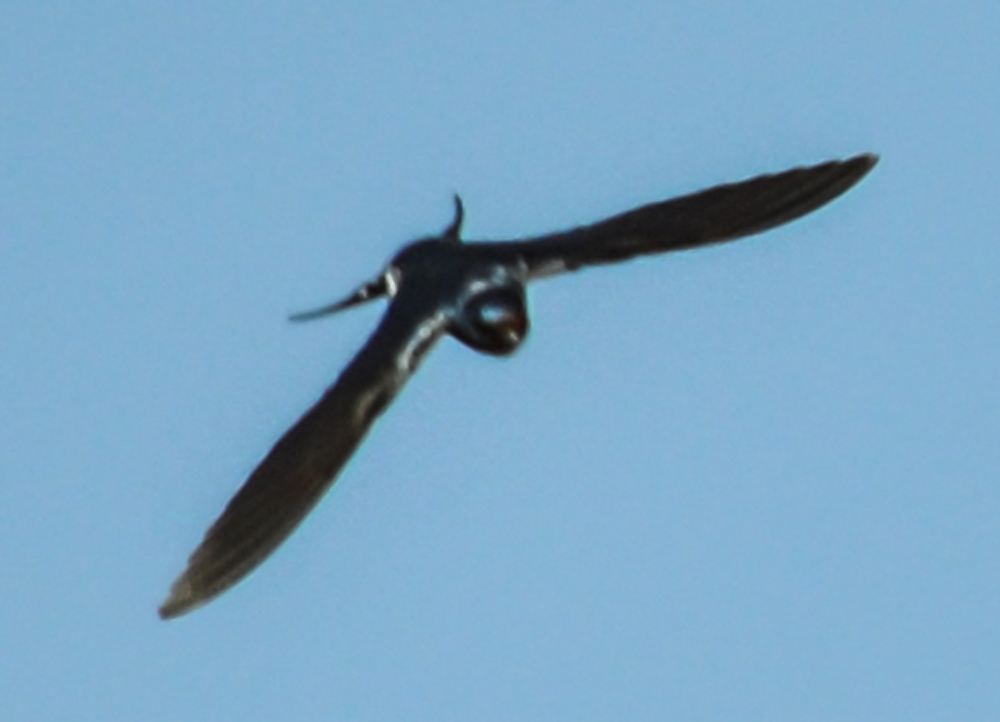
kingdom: Animalia
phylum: Chordata
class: Aves
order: Passeriformes
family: Hirundinidae
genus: Hirundo
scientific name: Hirundo rustica
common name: Barn swallow
